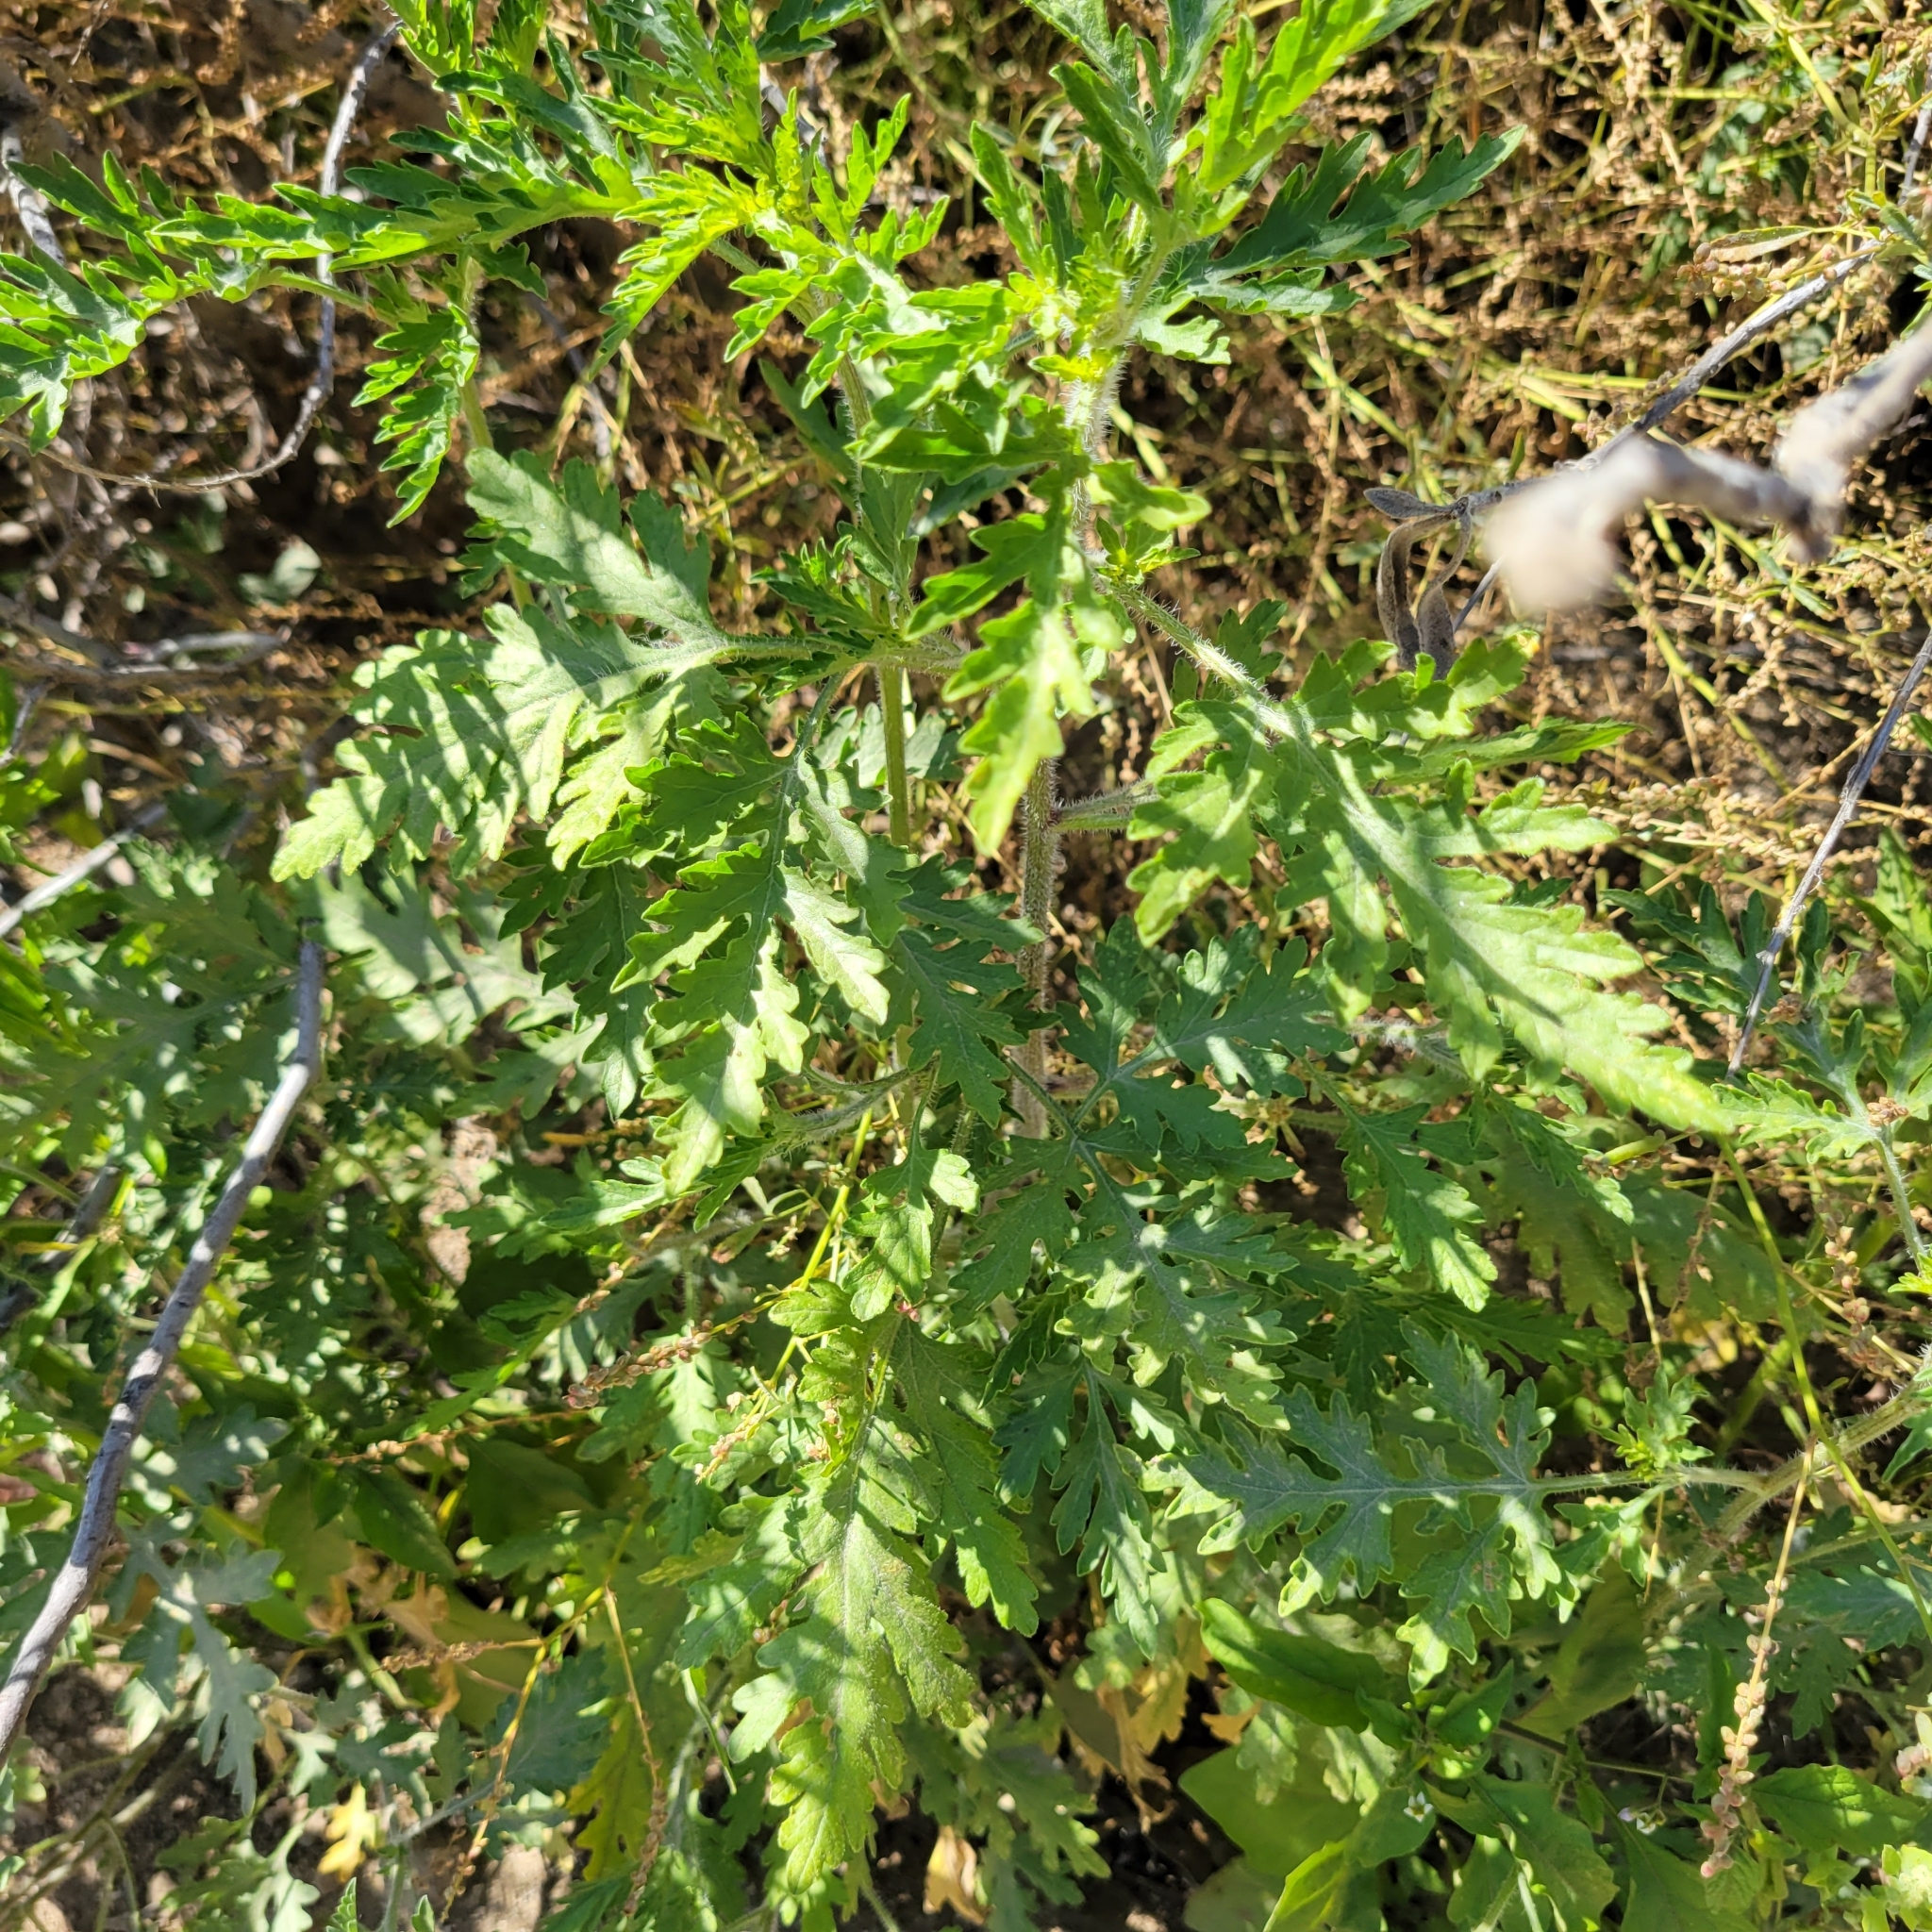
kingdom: Plantae
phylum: Tracheophyta
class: Magnoliopsida
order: Asterales
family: Asteraceae
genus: Ambrosia
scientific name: Ambrosia acanthicarpa
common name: Hooker's bur ragweed
